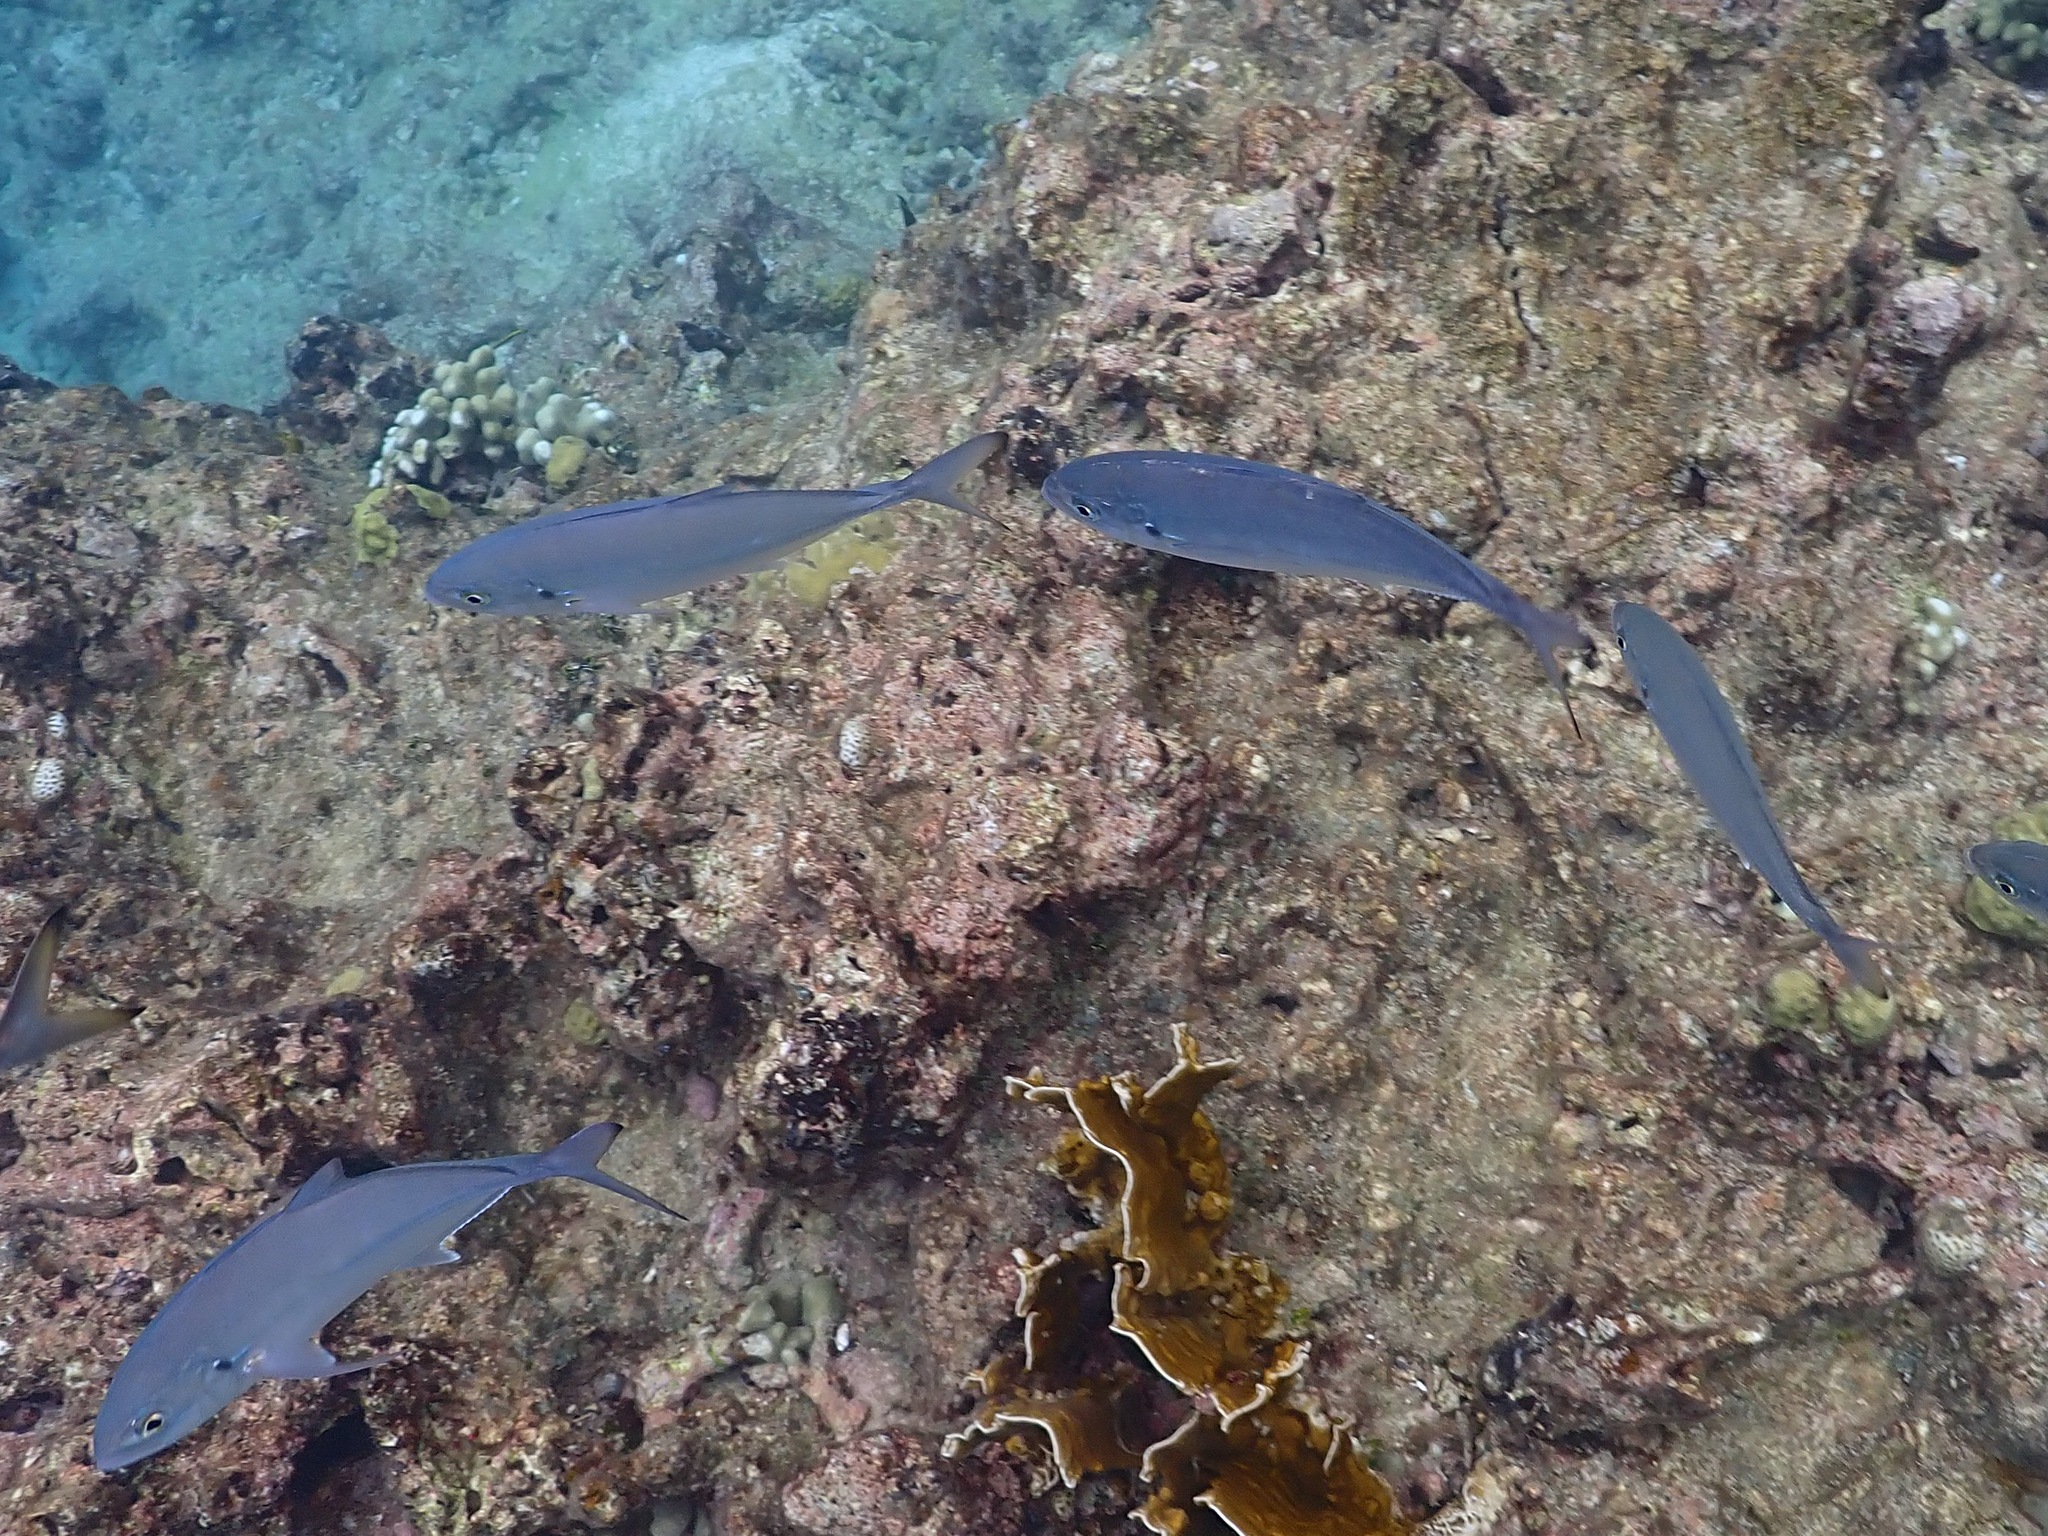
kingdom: Animalia
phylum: Chordata
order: Perciformes
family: Carangidae
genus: Caranx
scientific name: Caranx crysos
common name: Blue runner
